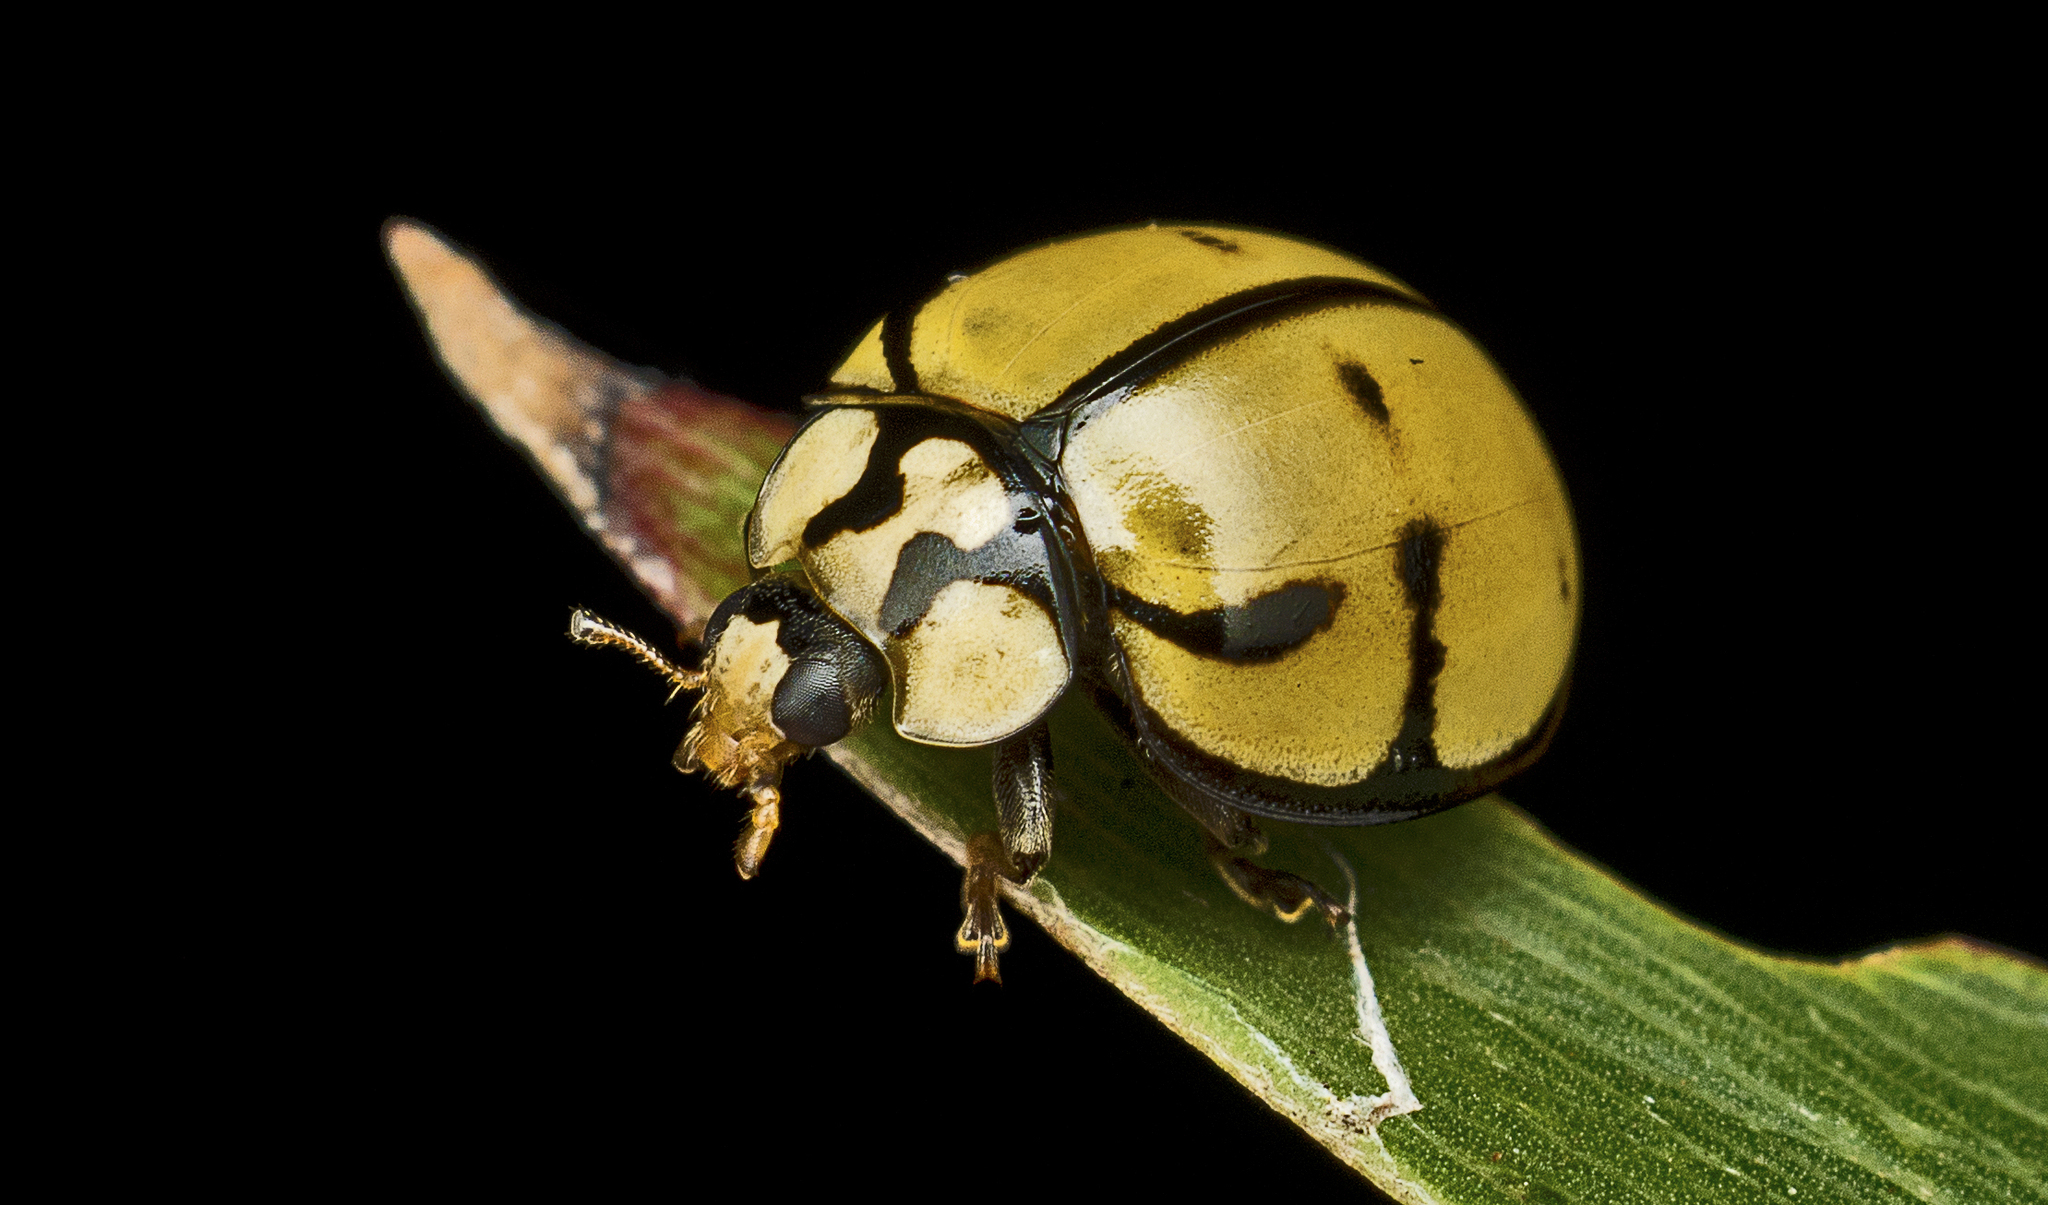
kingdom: Animalia
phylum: Arthropoda
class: Insecta
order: Coleoptera
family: Coccinellidae
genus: Harmonia
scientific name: Harmonia
